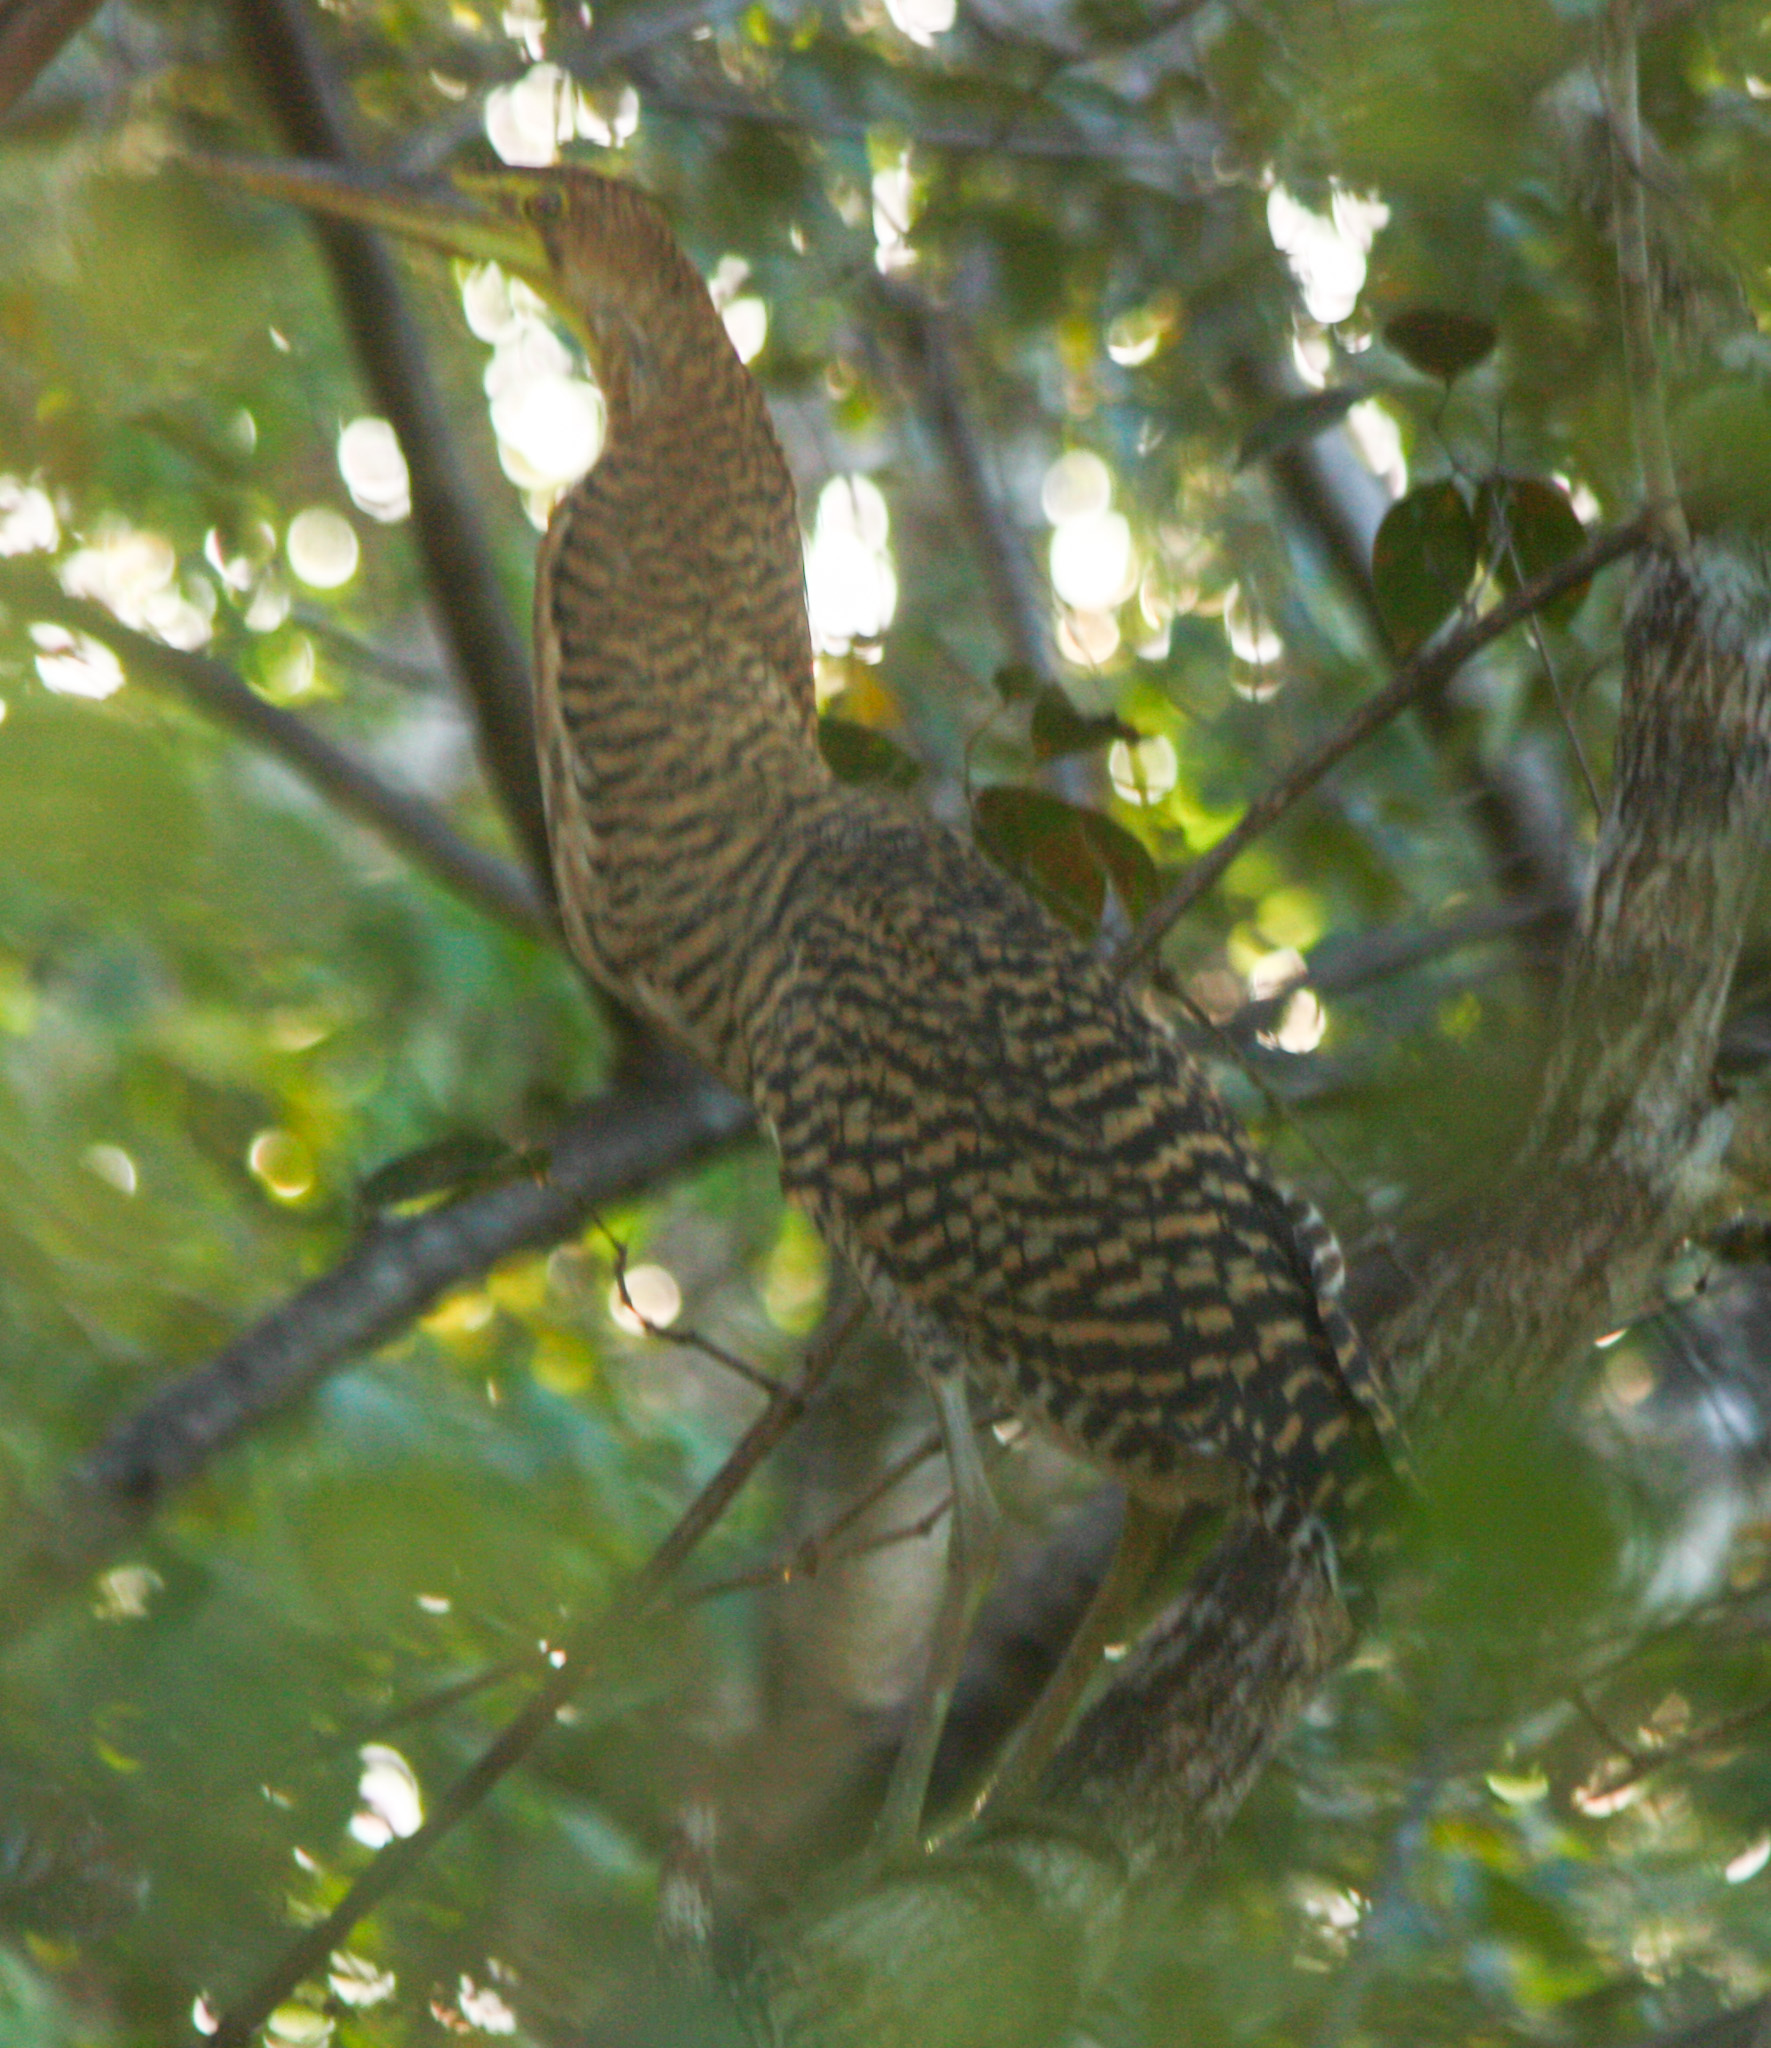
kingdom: Animalia
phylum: Chordata
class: Aves
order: Pelecaniformes
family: Ardeidae
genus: Tigrisoma
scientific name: Tigrisoma mexicanum
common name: Bare-throated tiger-heron
